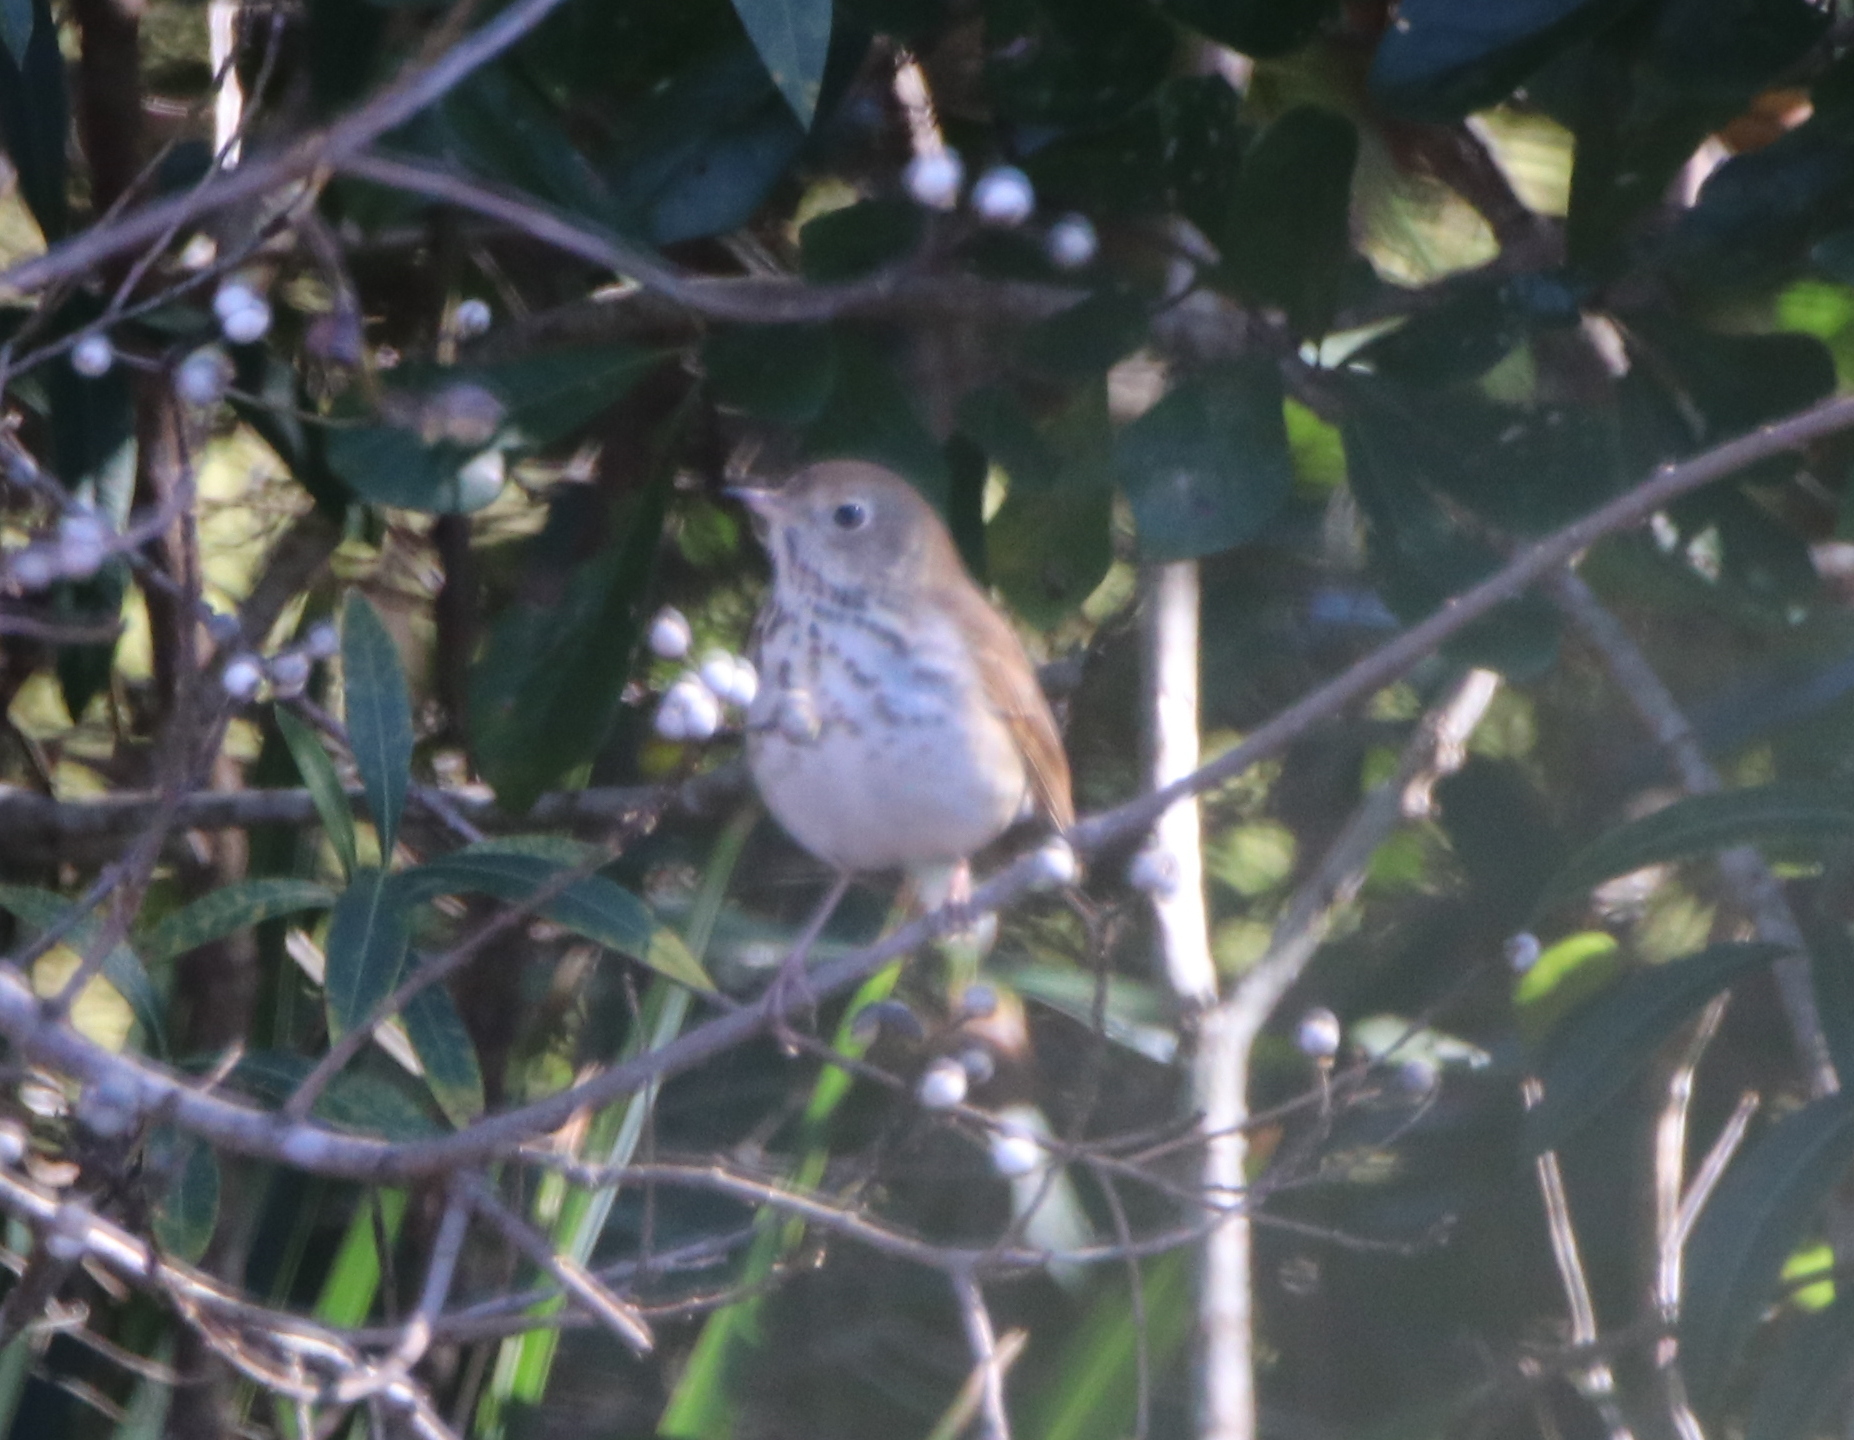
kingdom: Animalia
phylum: Chordata
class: Aves
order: Passeriformes
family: Turdidae
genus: Catharus
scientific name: Catharus guttatus
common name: Hermit thrush
